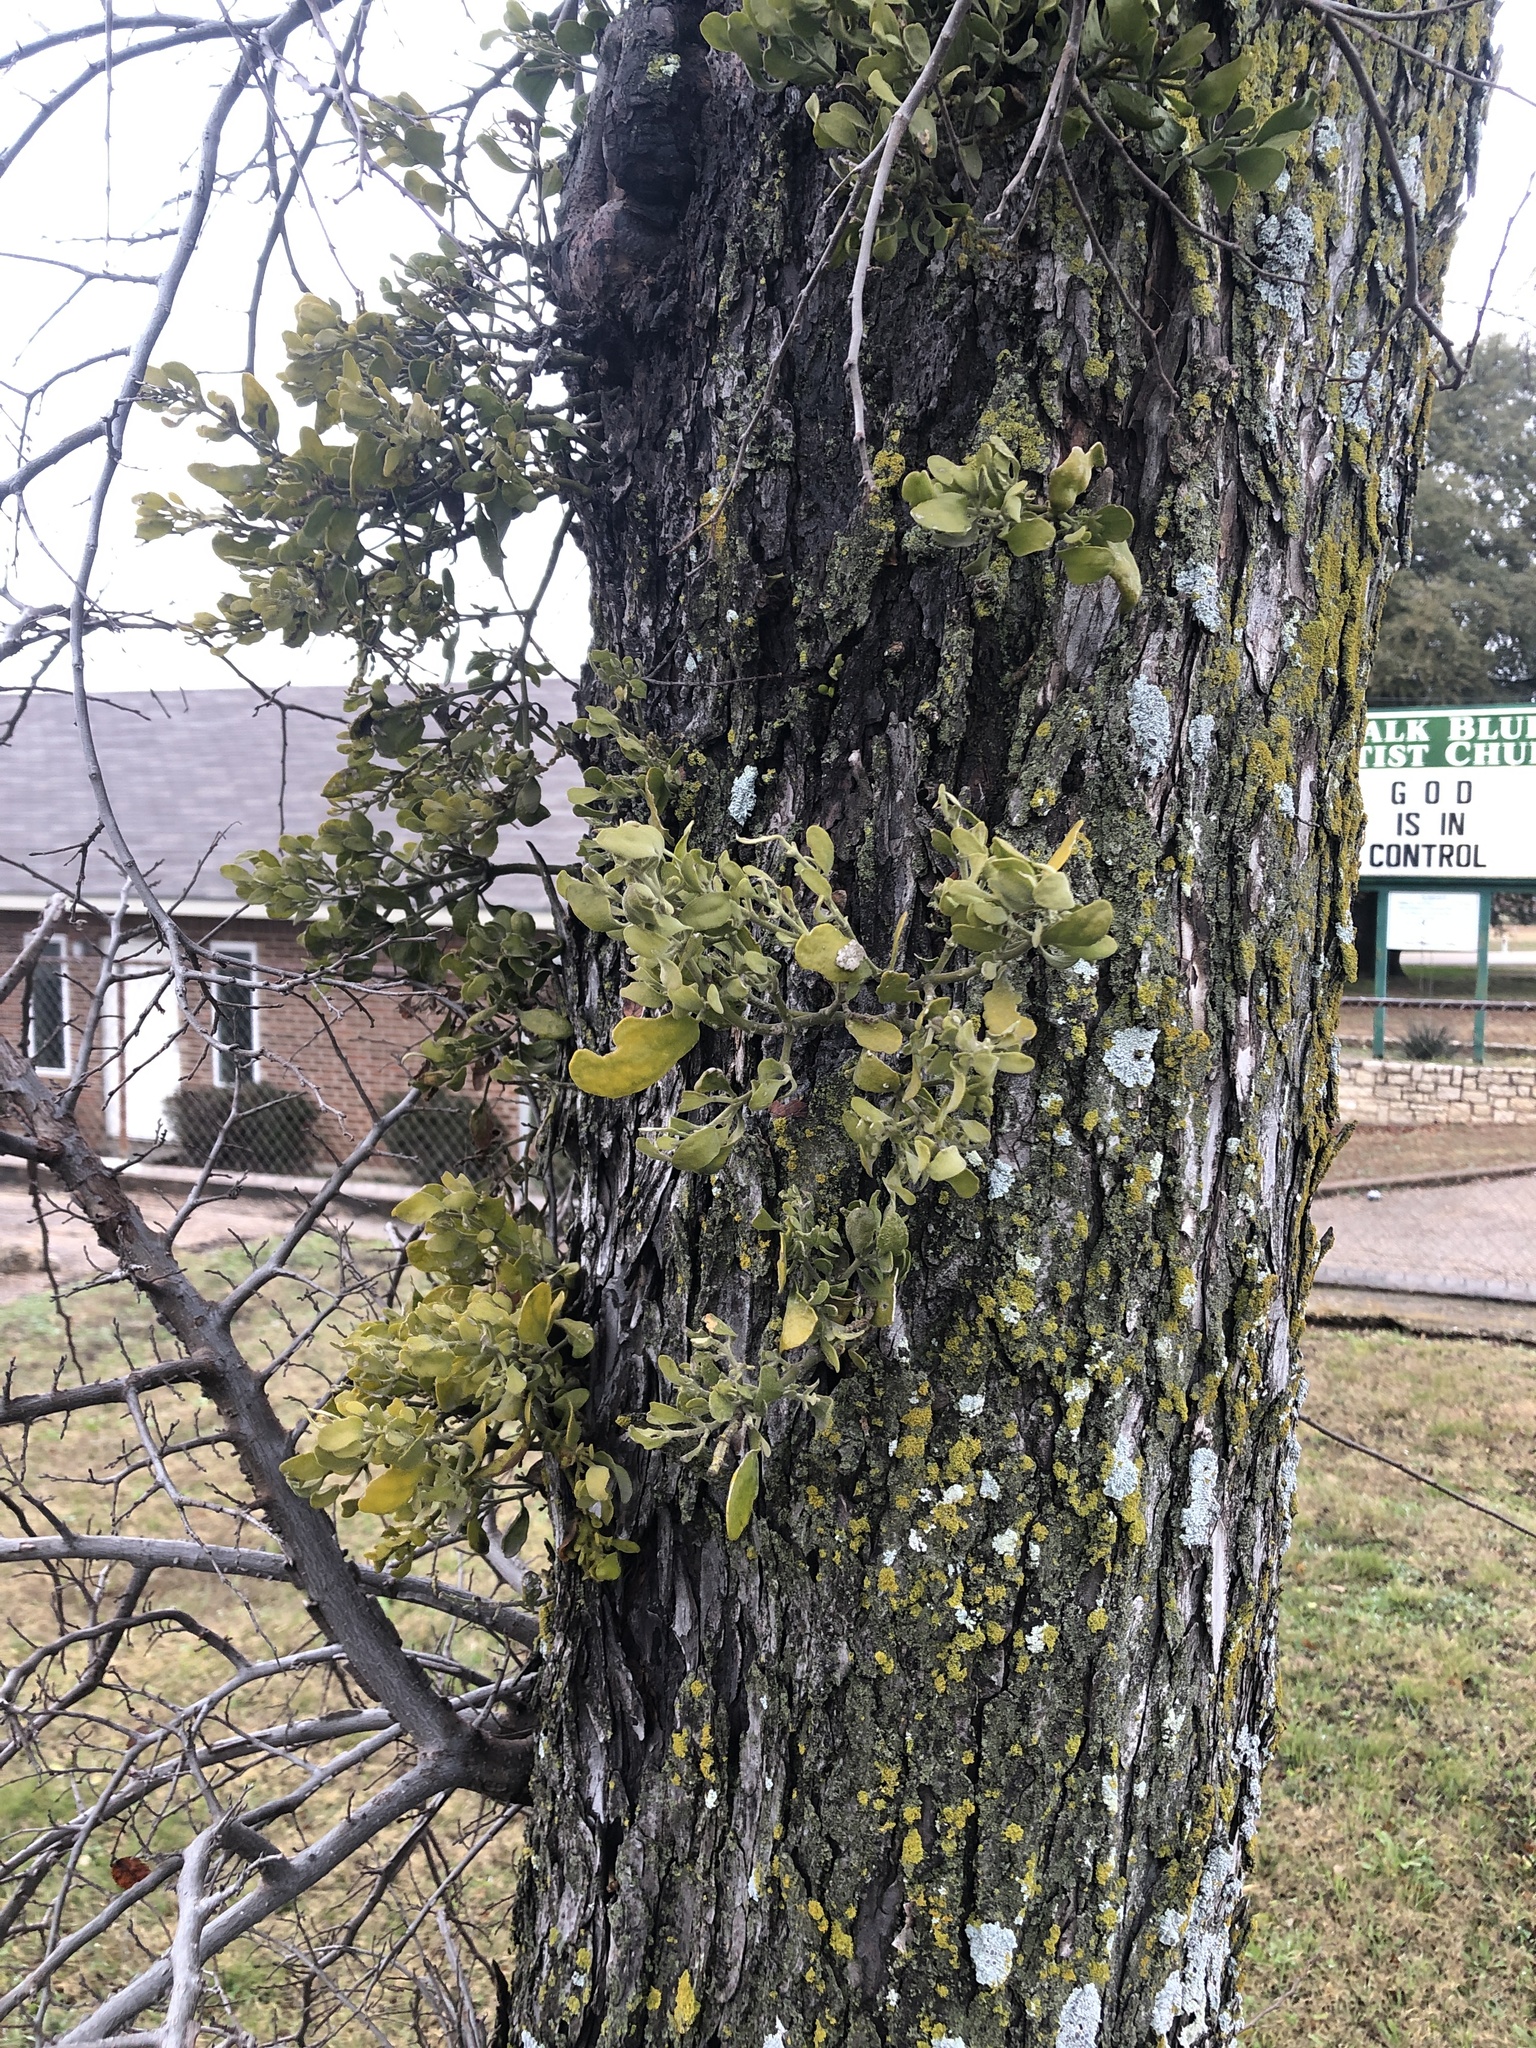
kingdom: Plantae
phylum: Tracheophyta
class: Magnoliopsida
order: Santalales
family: Viscaceae
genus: Phoradendron
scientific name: Phoradendron leucarpum
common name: Pacific mistletoe
